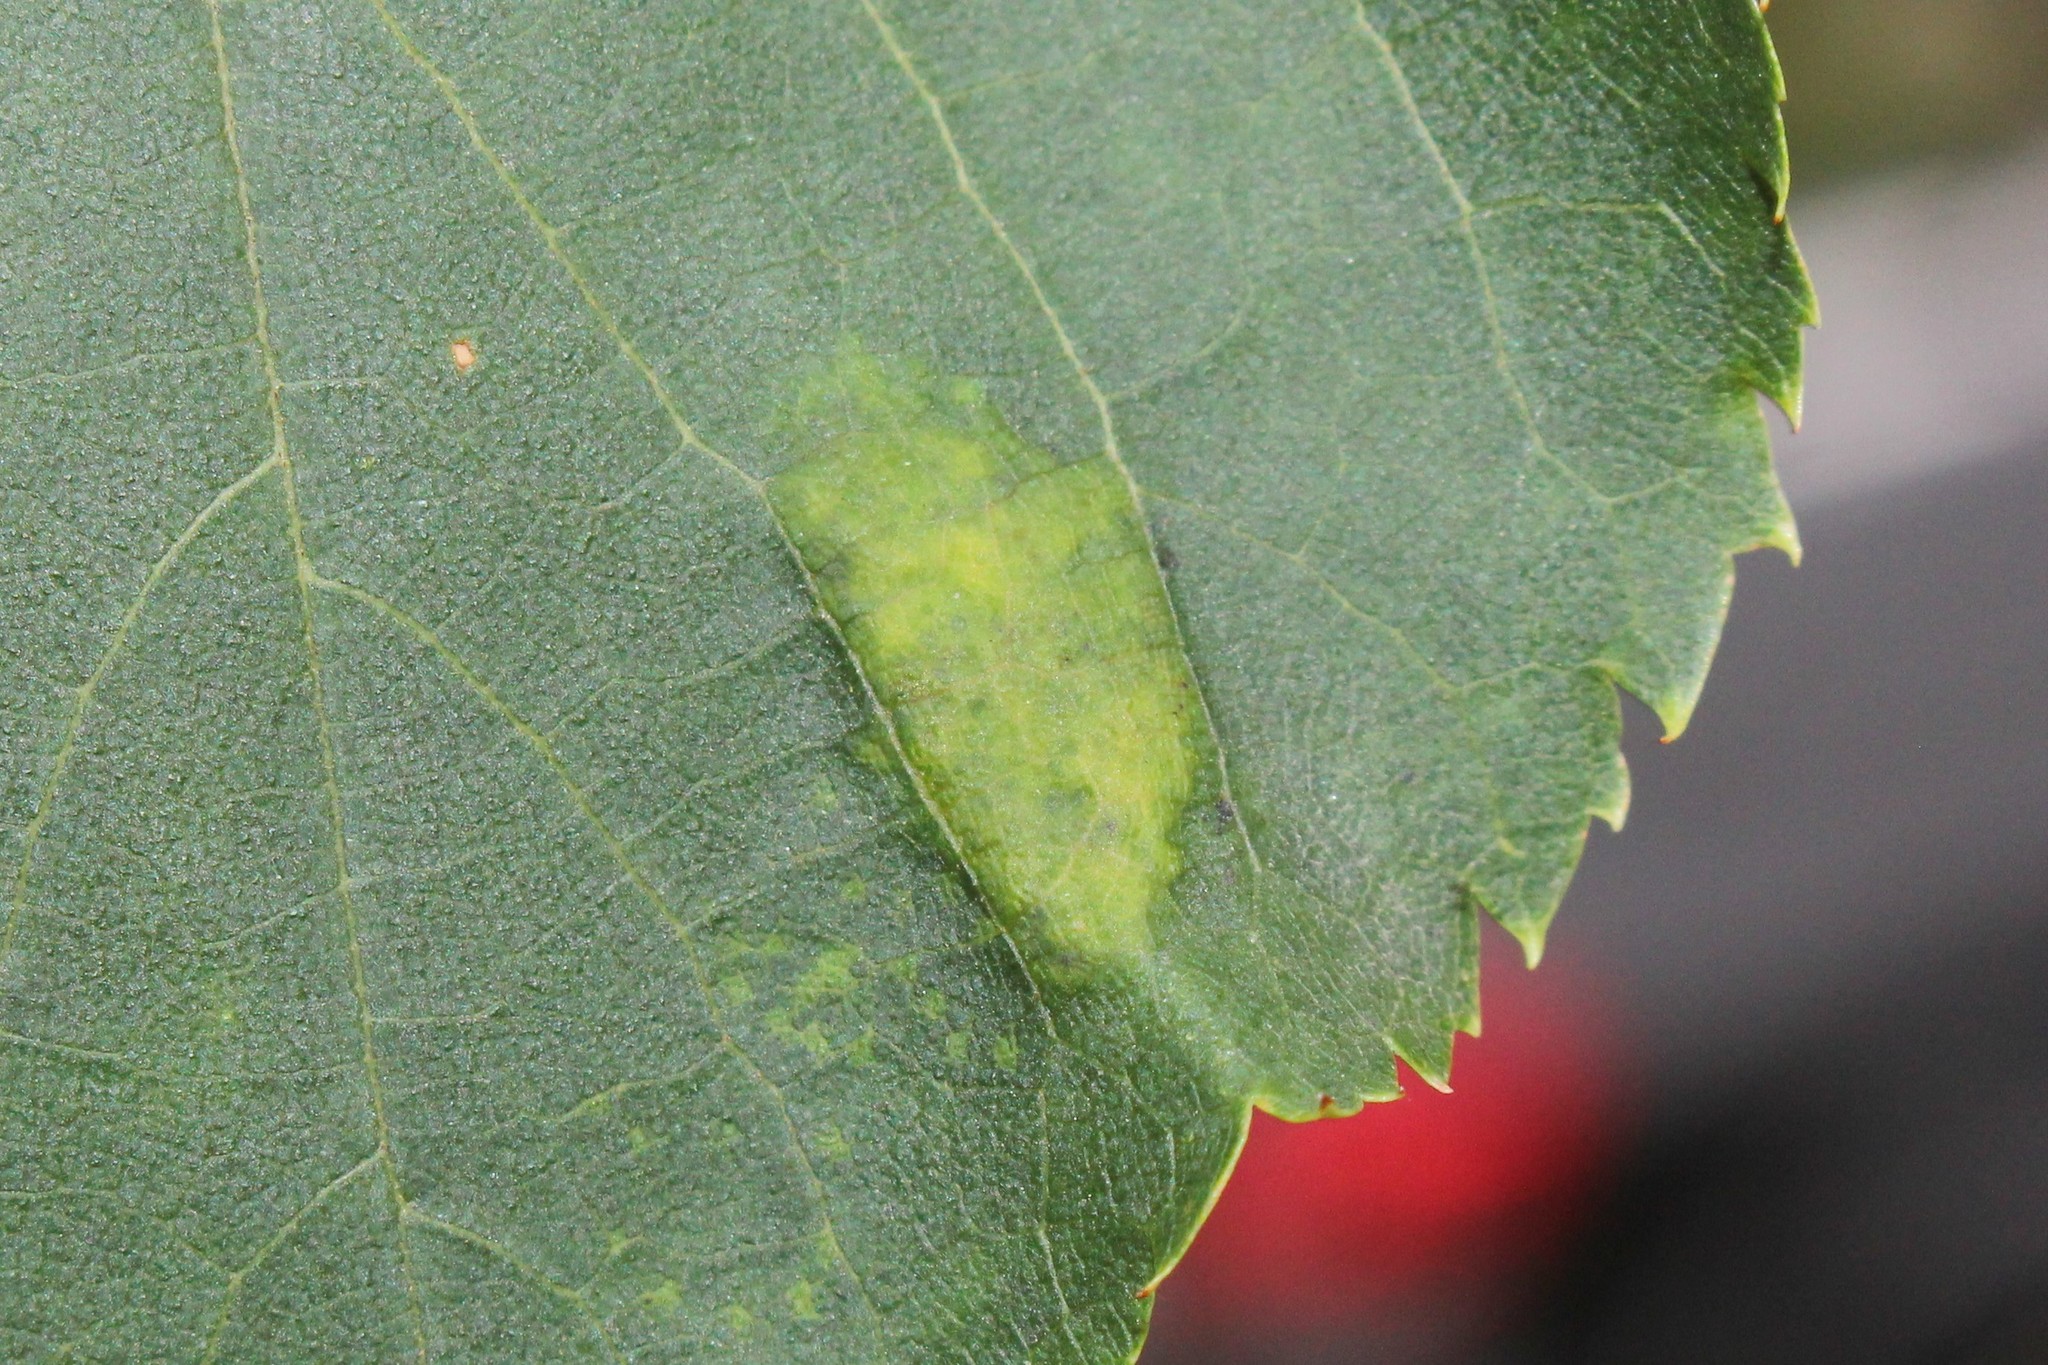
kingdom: Animalia
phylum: Arthropoda
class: Arachnida
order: Trombidiformes
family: Eriophyidae
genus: Eriophyes
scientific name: Eriophyes leiosoma
